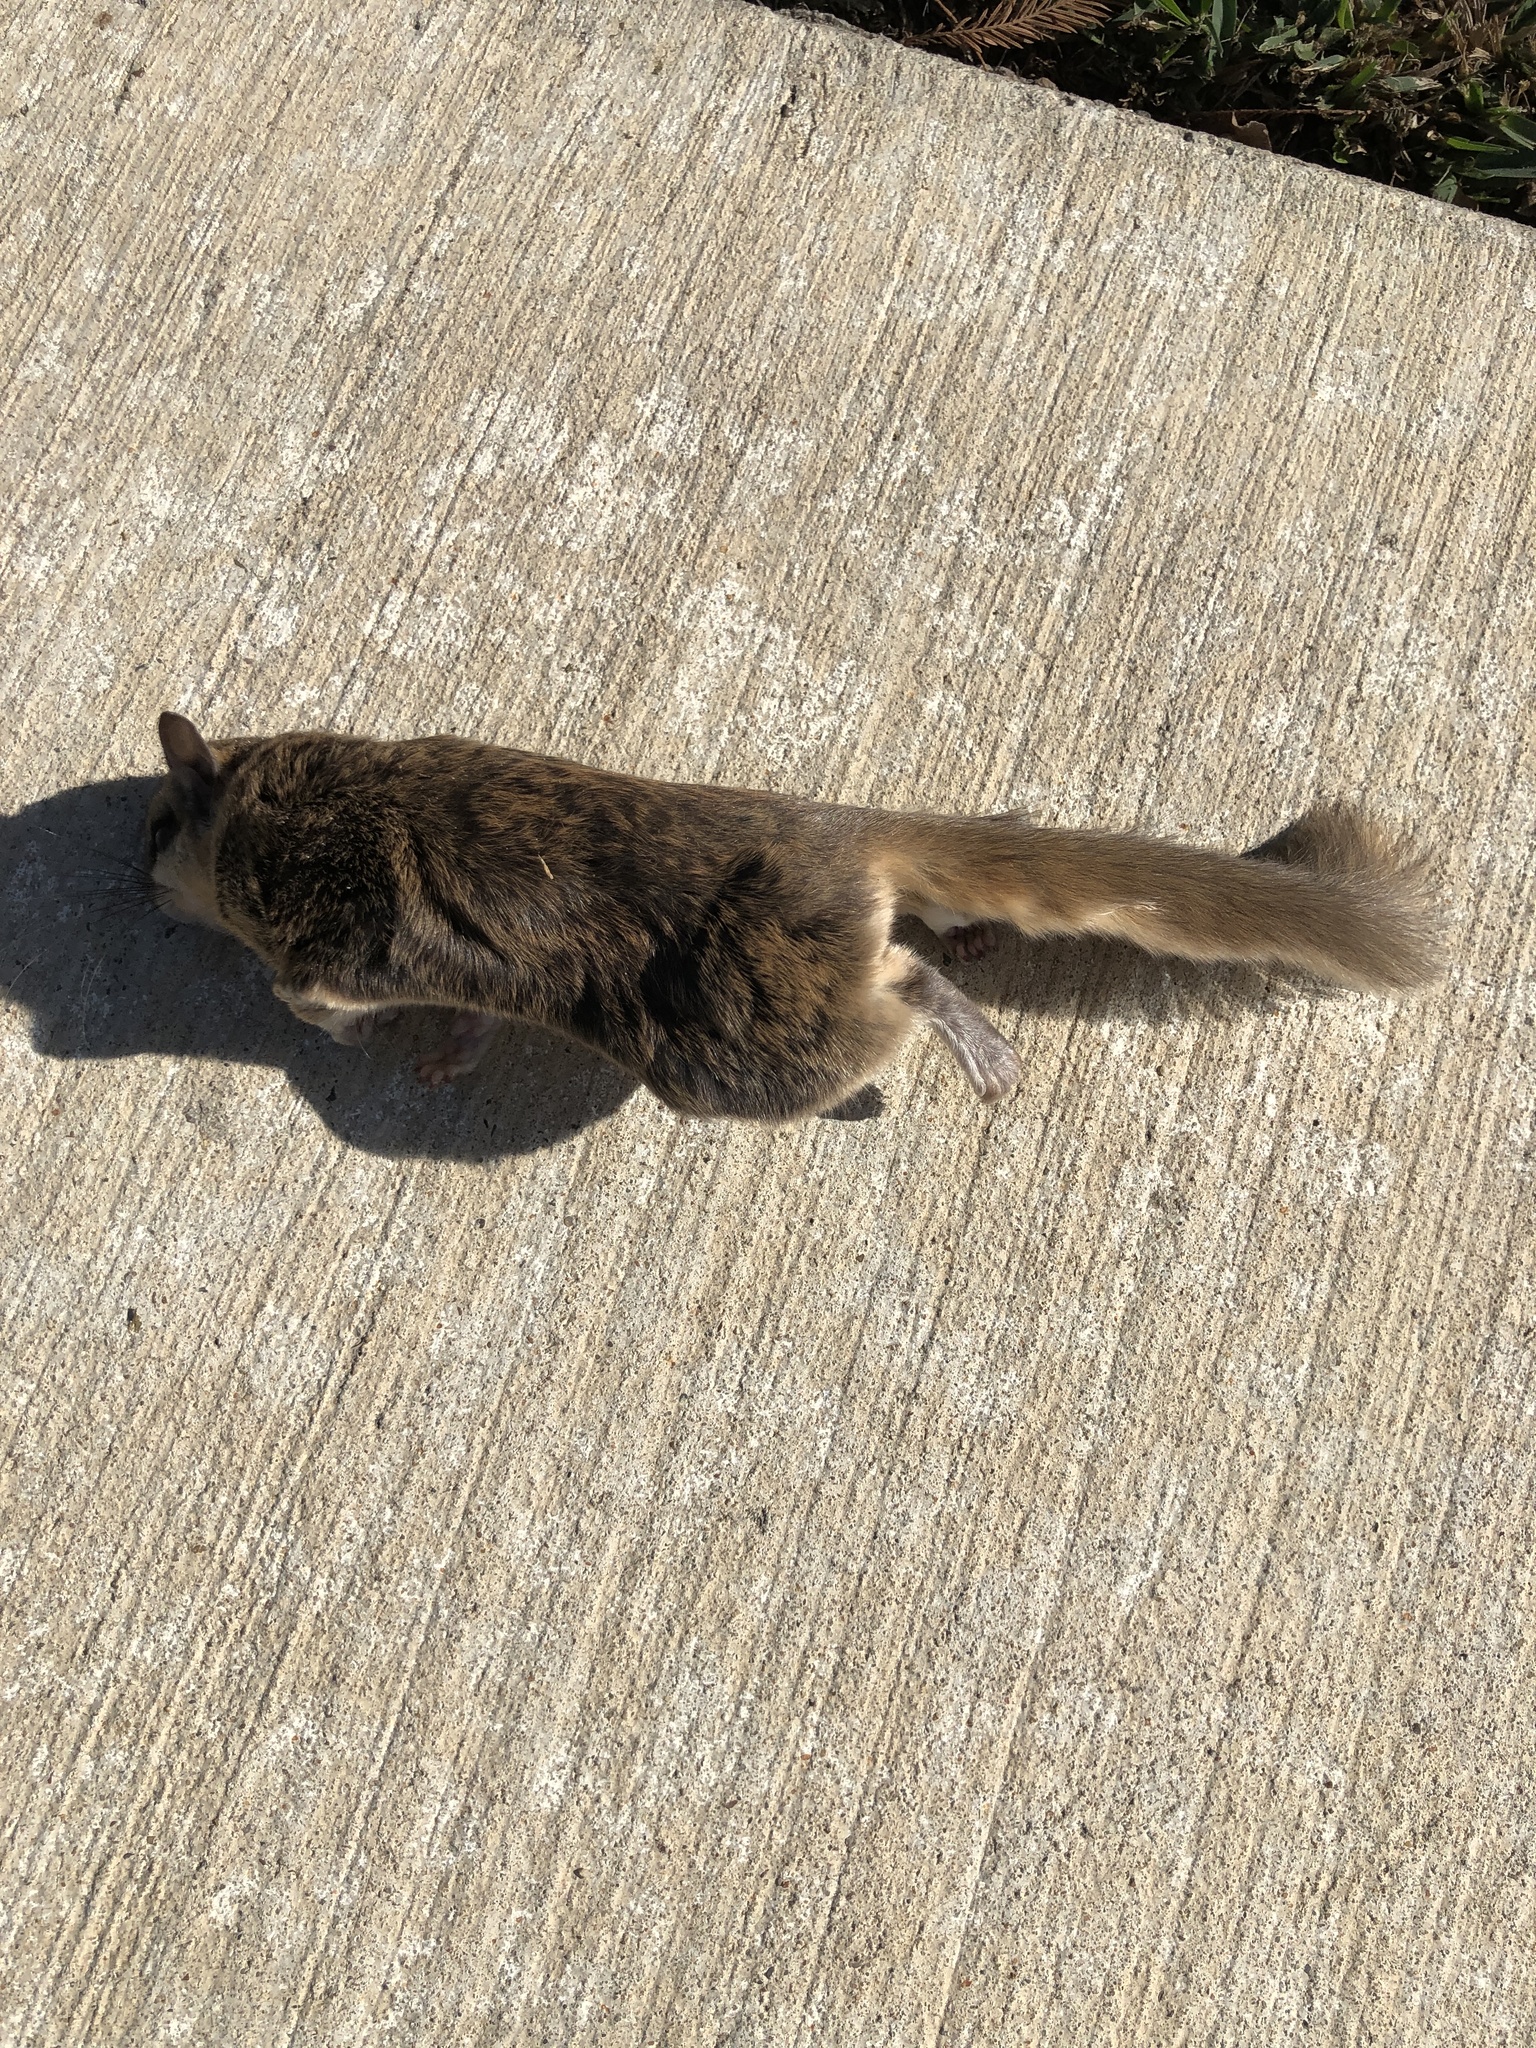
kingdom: Animalia
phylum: Chordata
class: Mammalia
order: Rodentia
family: Sciuridae
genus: Glaucomys
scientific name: Glaucomys volans
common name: Southern flying squirrel
